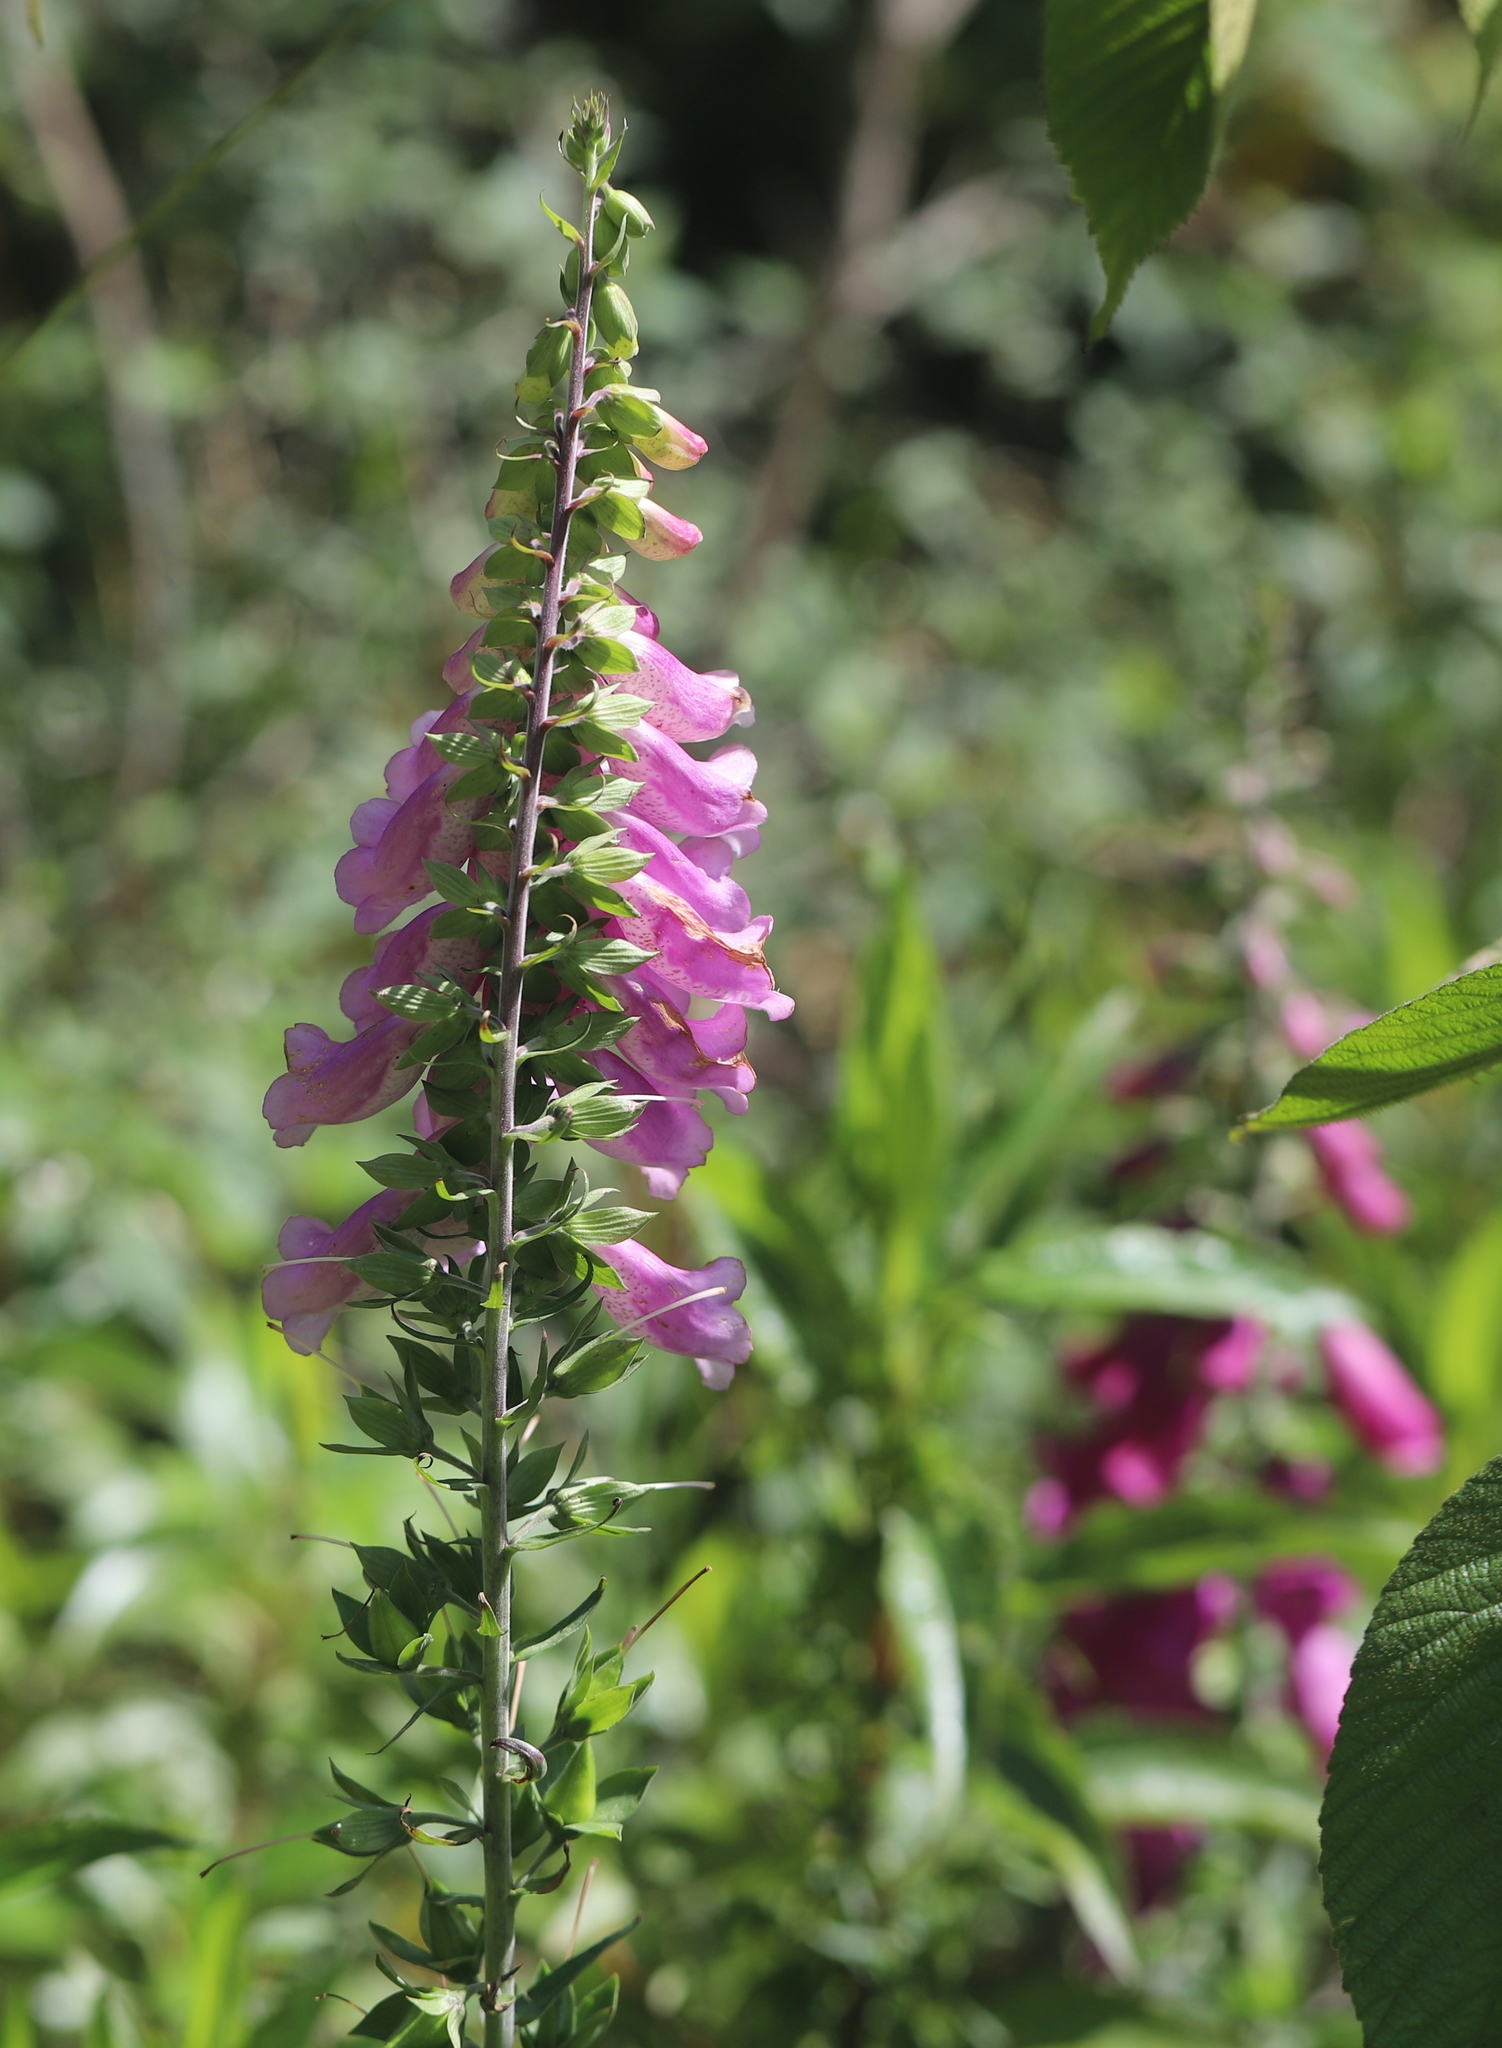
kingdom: Plantae
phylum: Tracheophyta
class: Magnoliopsida
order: Lamiales
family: Plantaginaceae
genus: Digitalis
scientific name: Digitalis purpurea
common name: Foxglove
